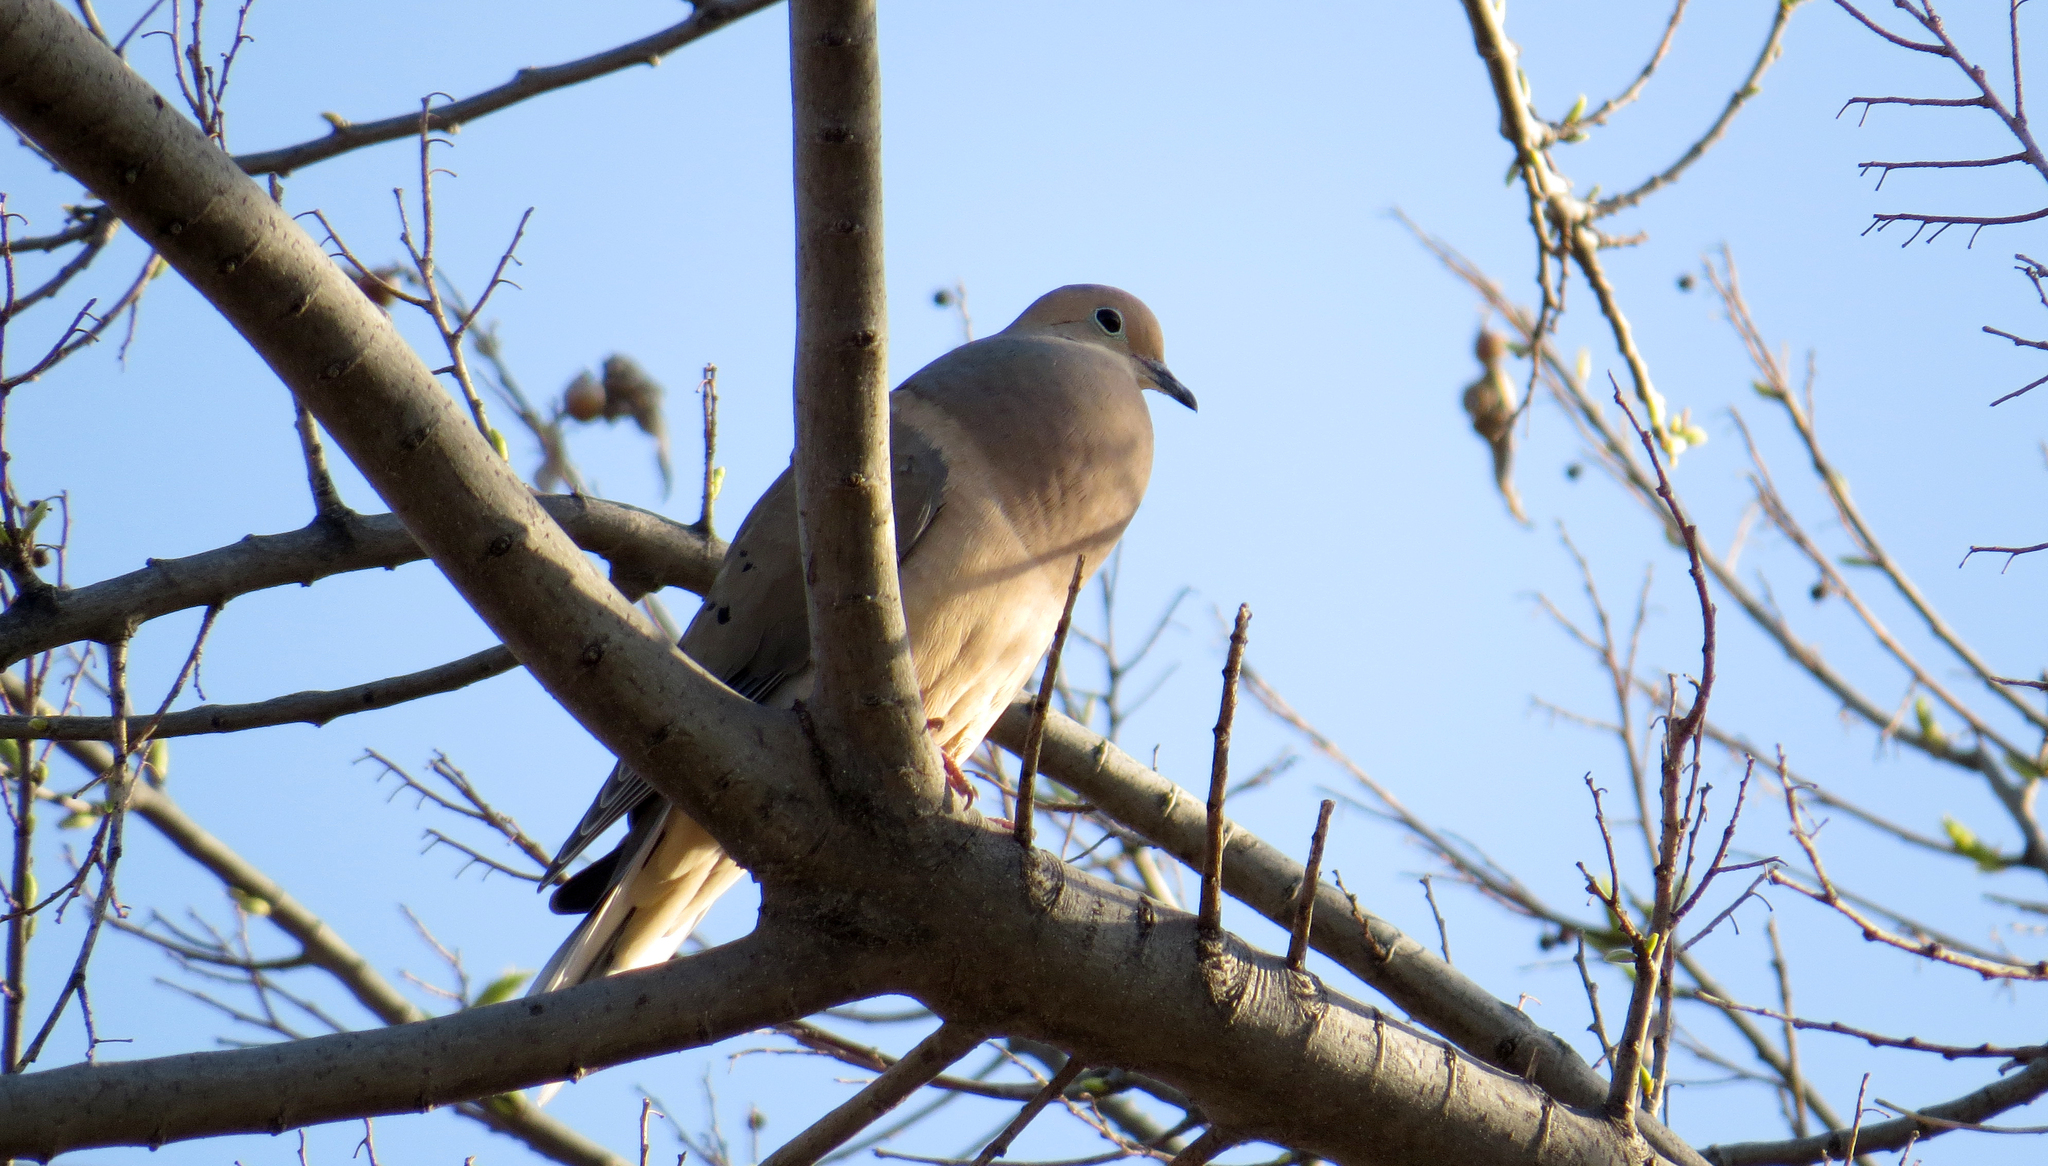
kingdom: Animalia
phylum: Chordata
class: Aves
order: Columbiformes
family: Columbidae
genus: Zenaida
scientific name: Zenaida macroura
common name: Mourning dove
